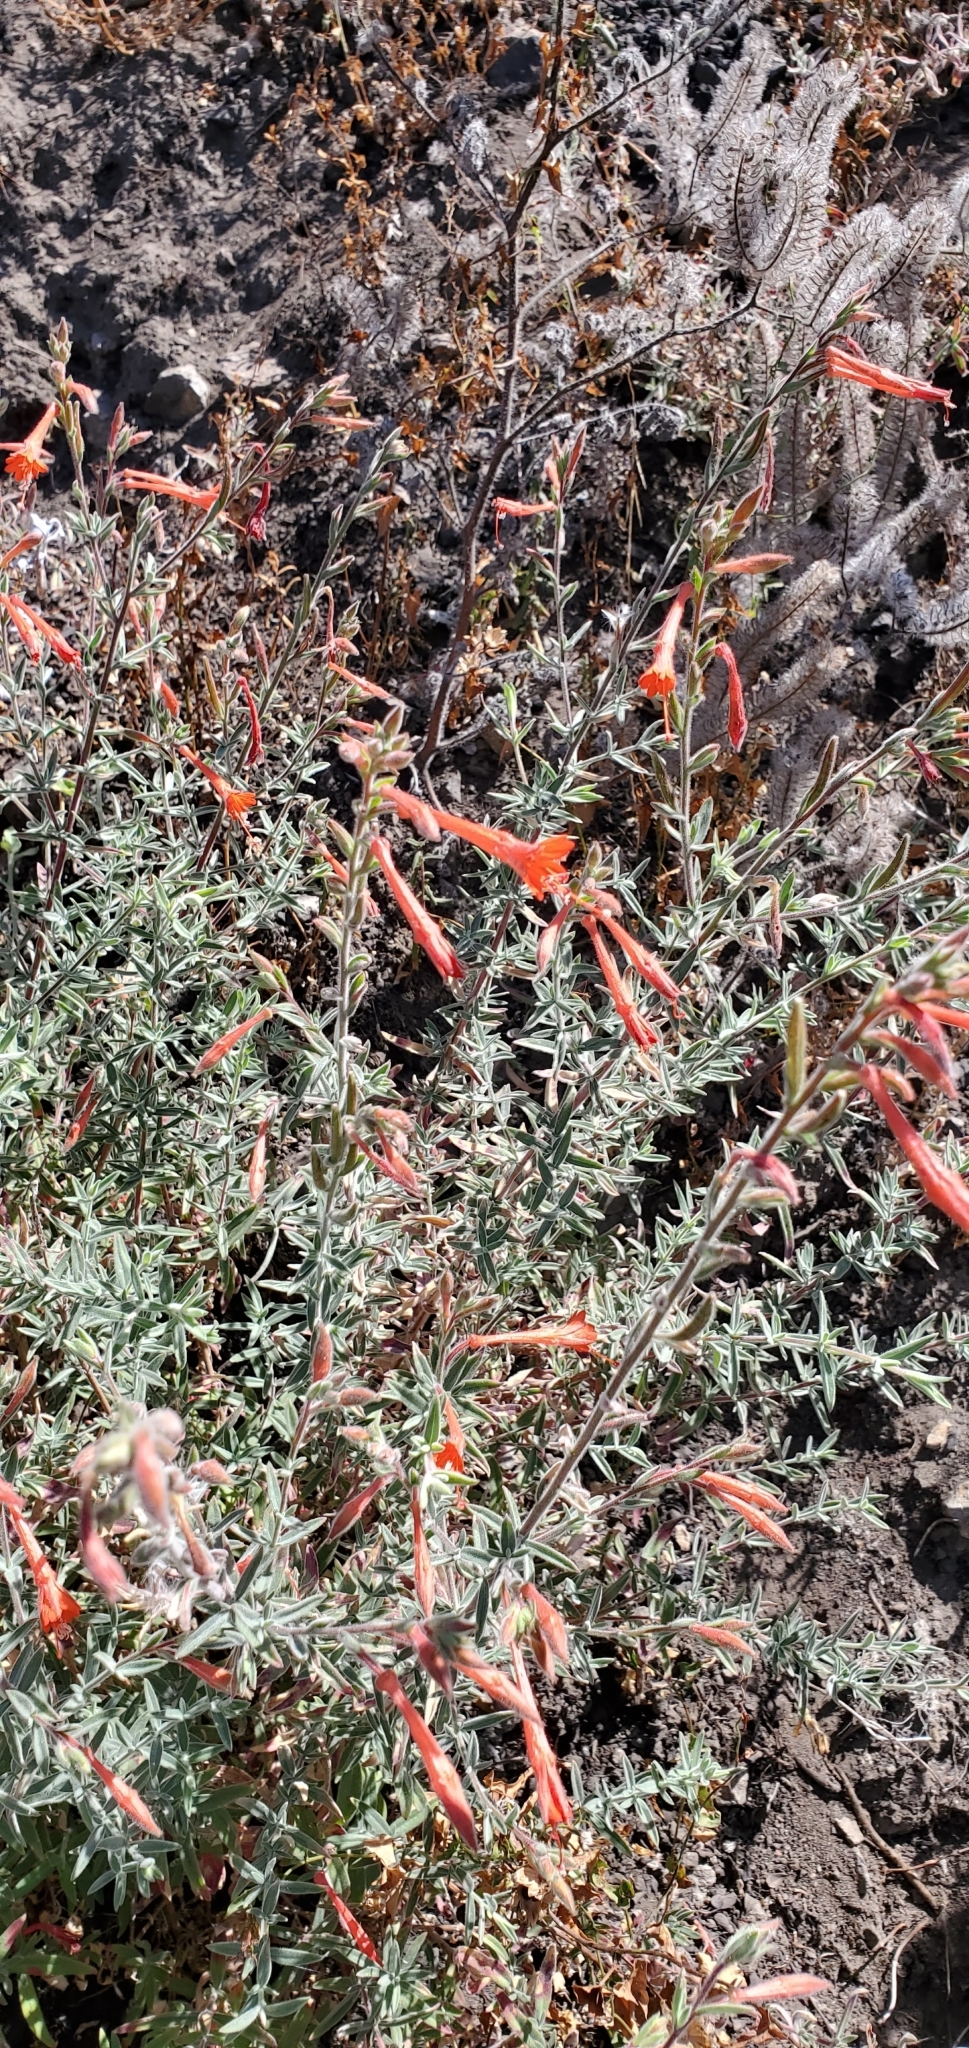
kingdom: Plantae
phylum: Tracheophyta
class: Magnoliopsida
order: Myrtales
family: Onagraceae
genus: Epilobium
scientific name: Epilobium canum
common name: California-fuchsia
